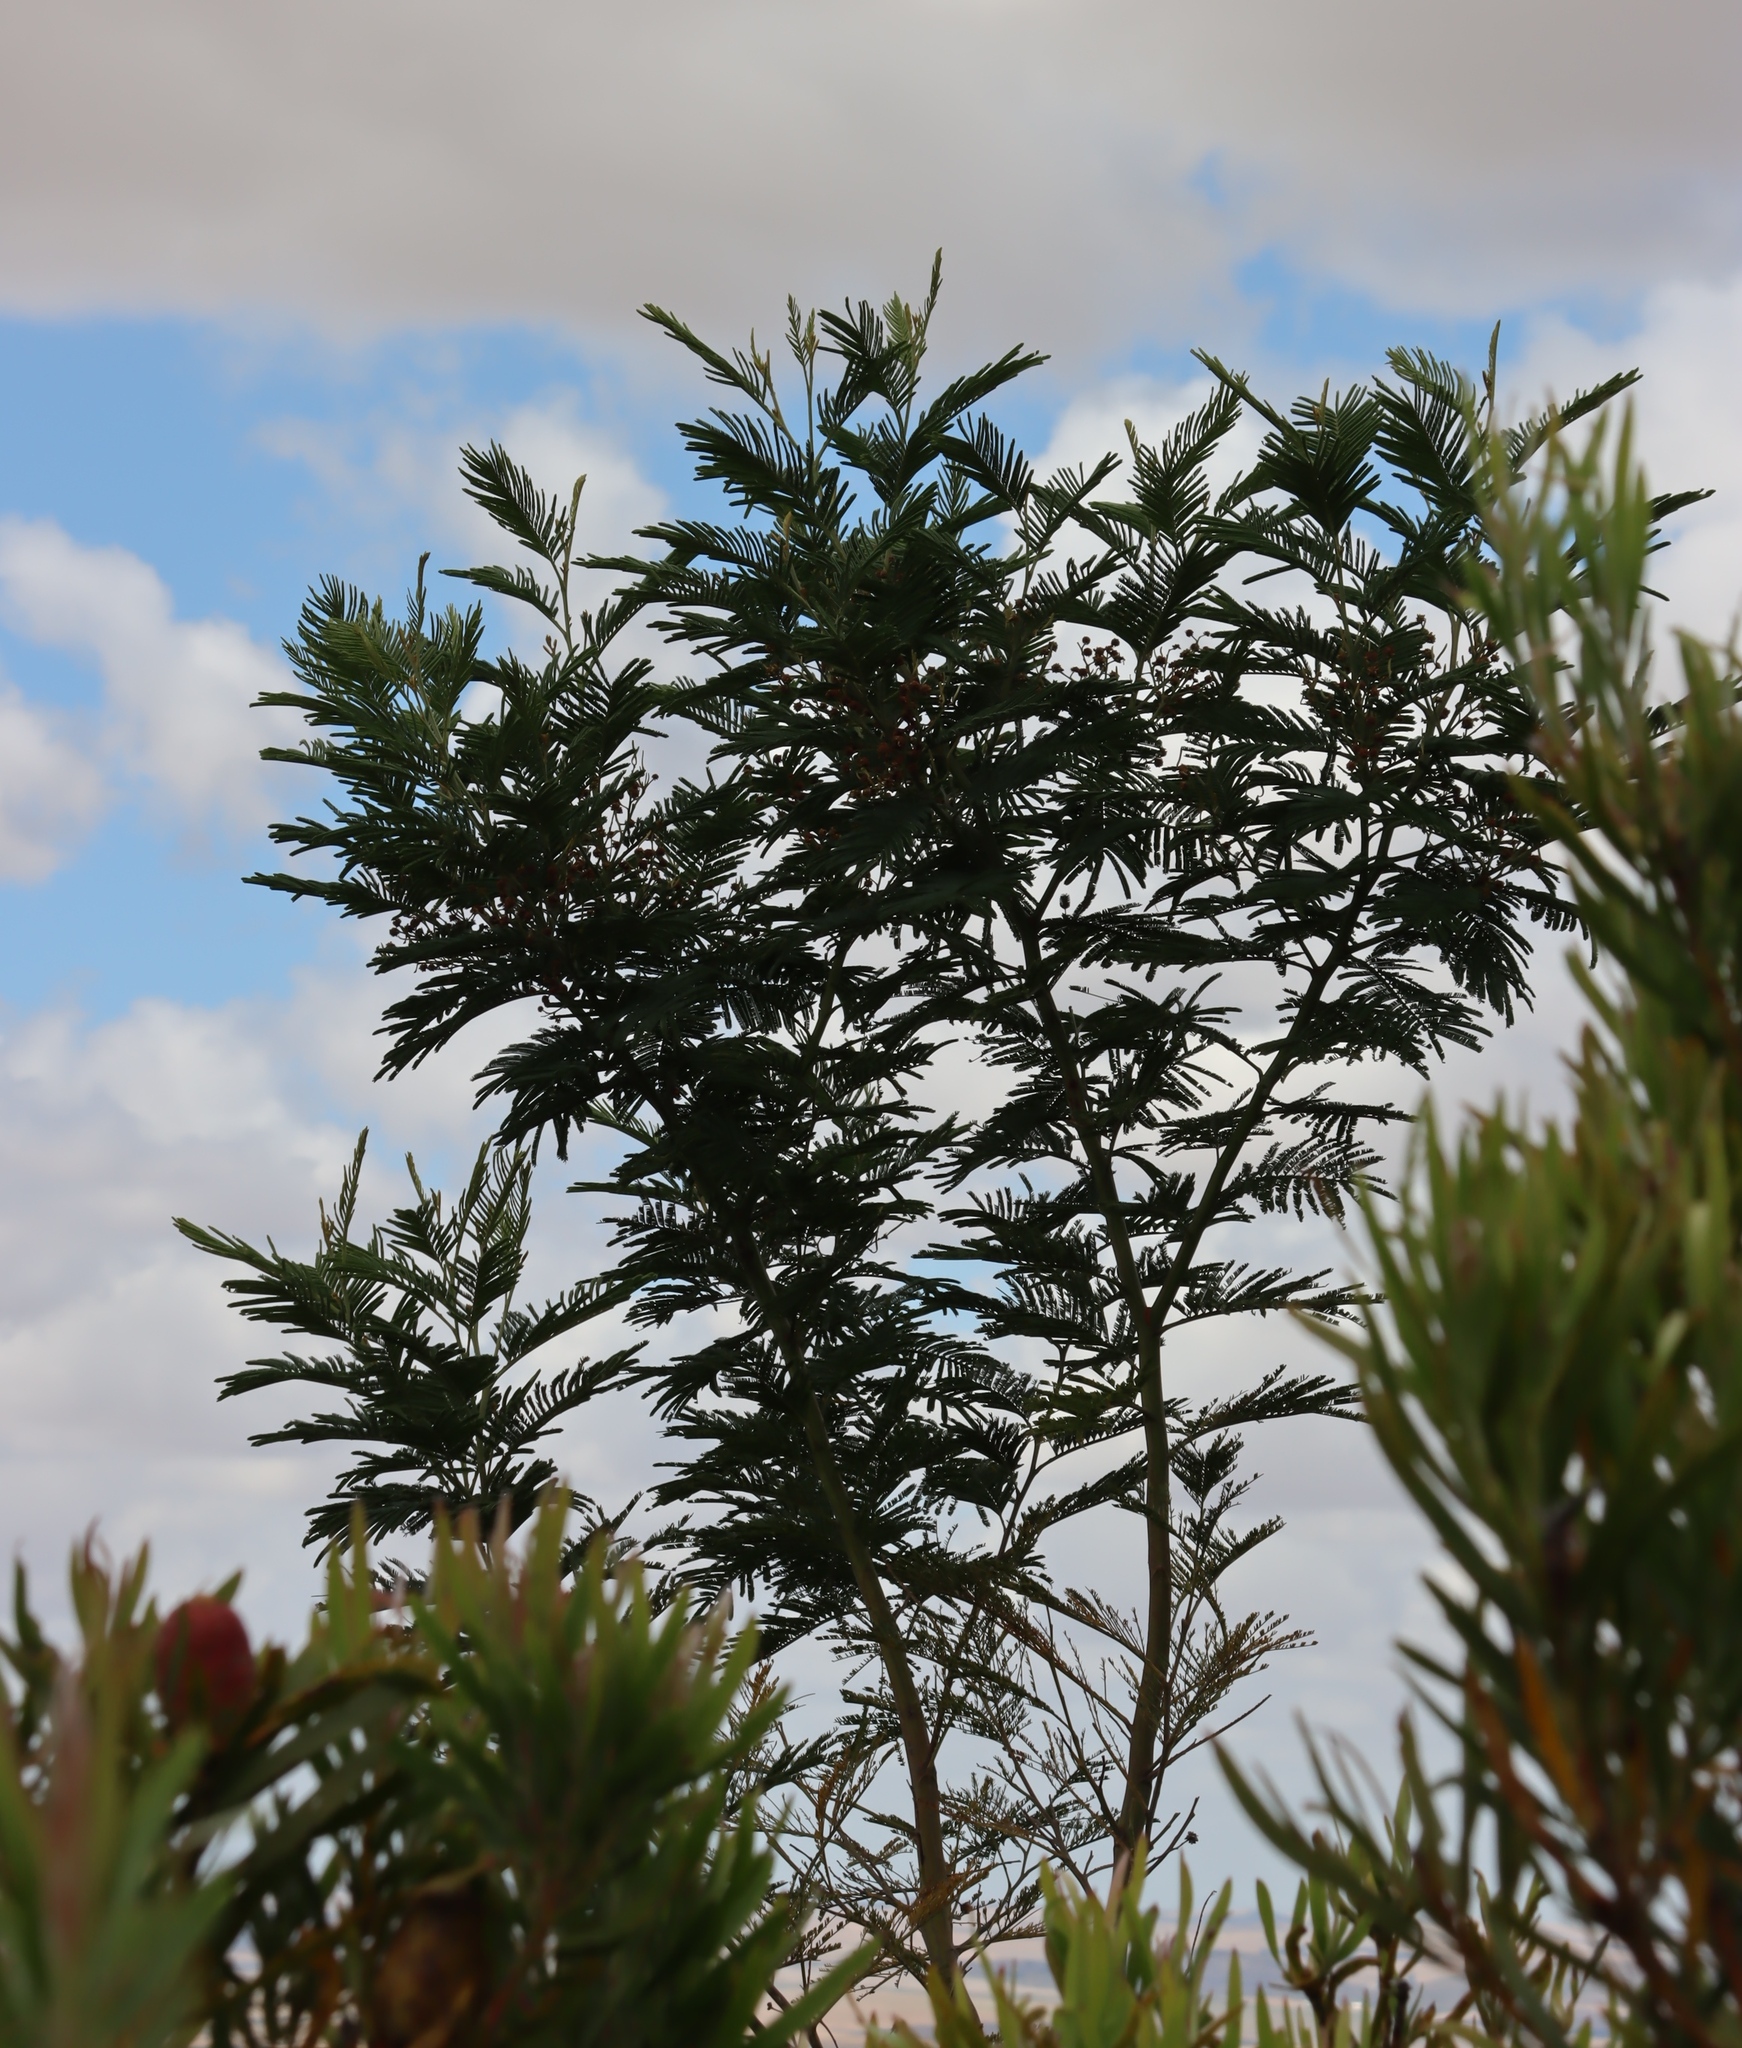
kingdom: Plantae
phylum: Tracheophyta
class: Magnoliopsida
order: Fabales
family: Fabaceae
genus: Acacia
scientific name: Acacia mearnsii
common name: Black wattle
